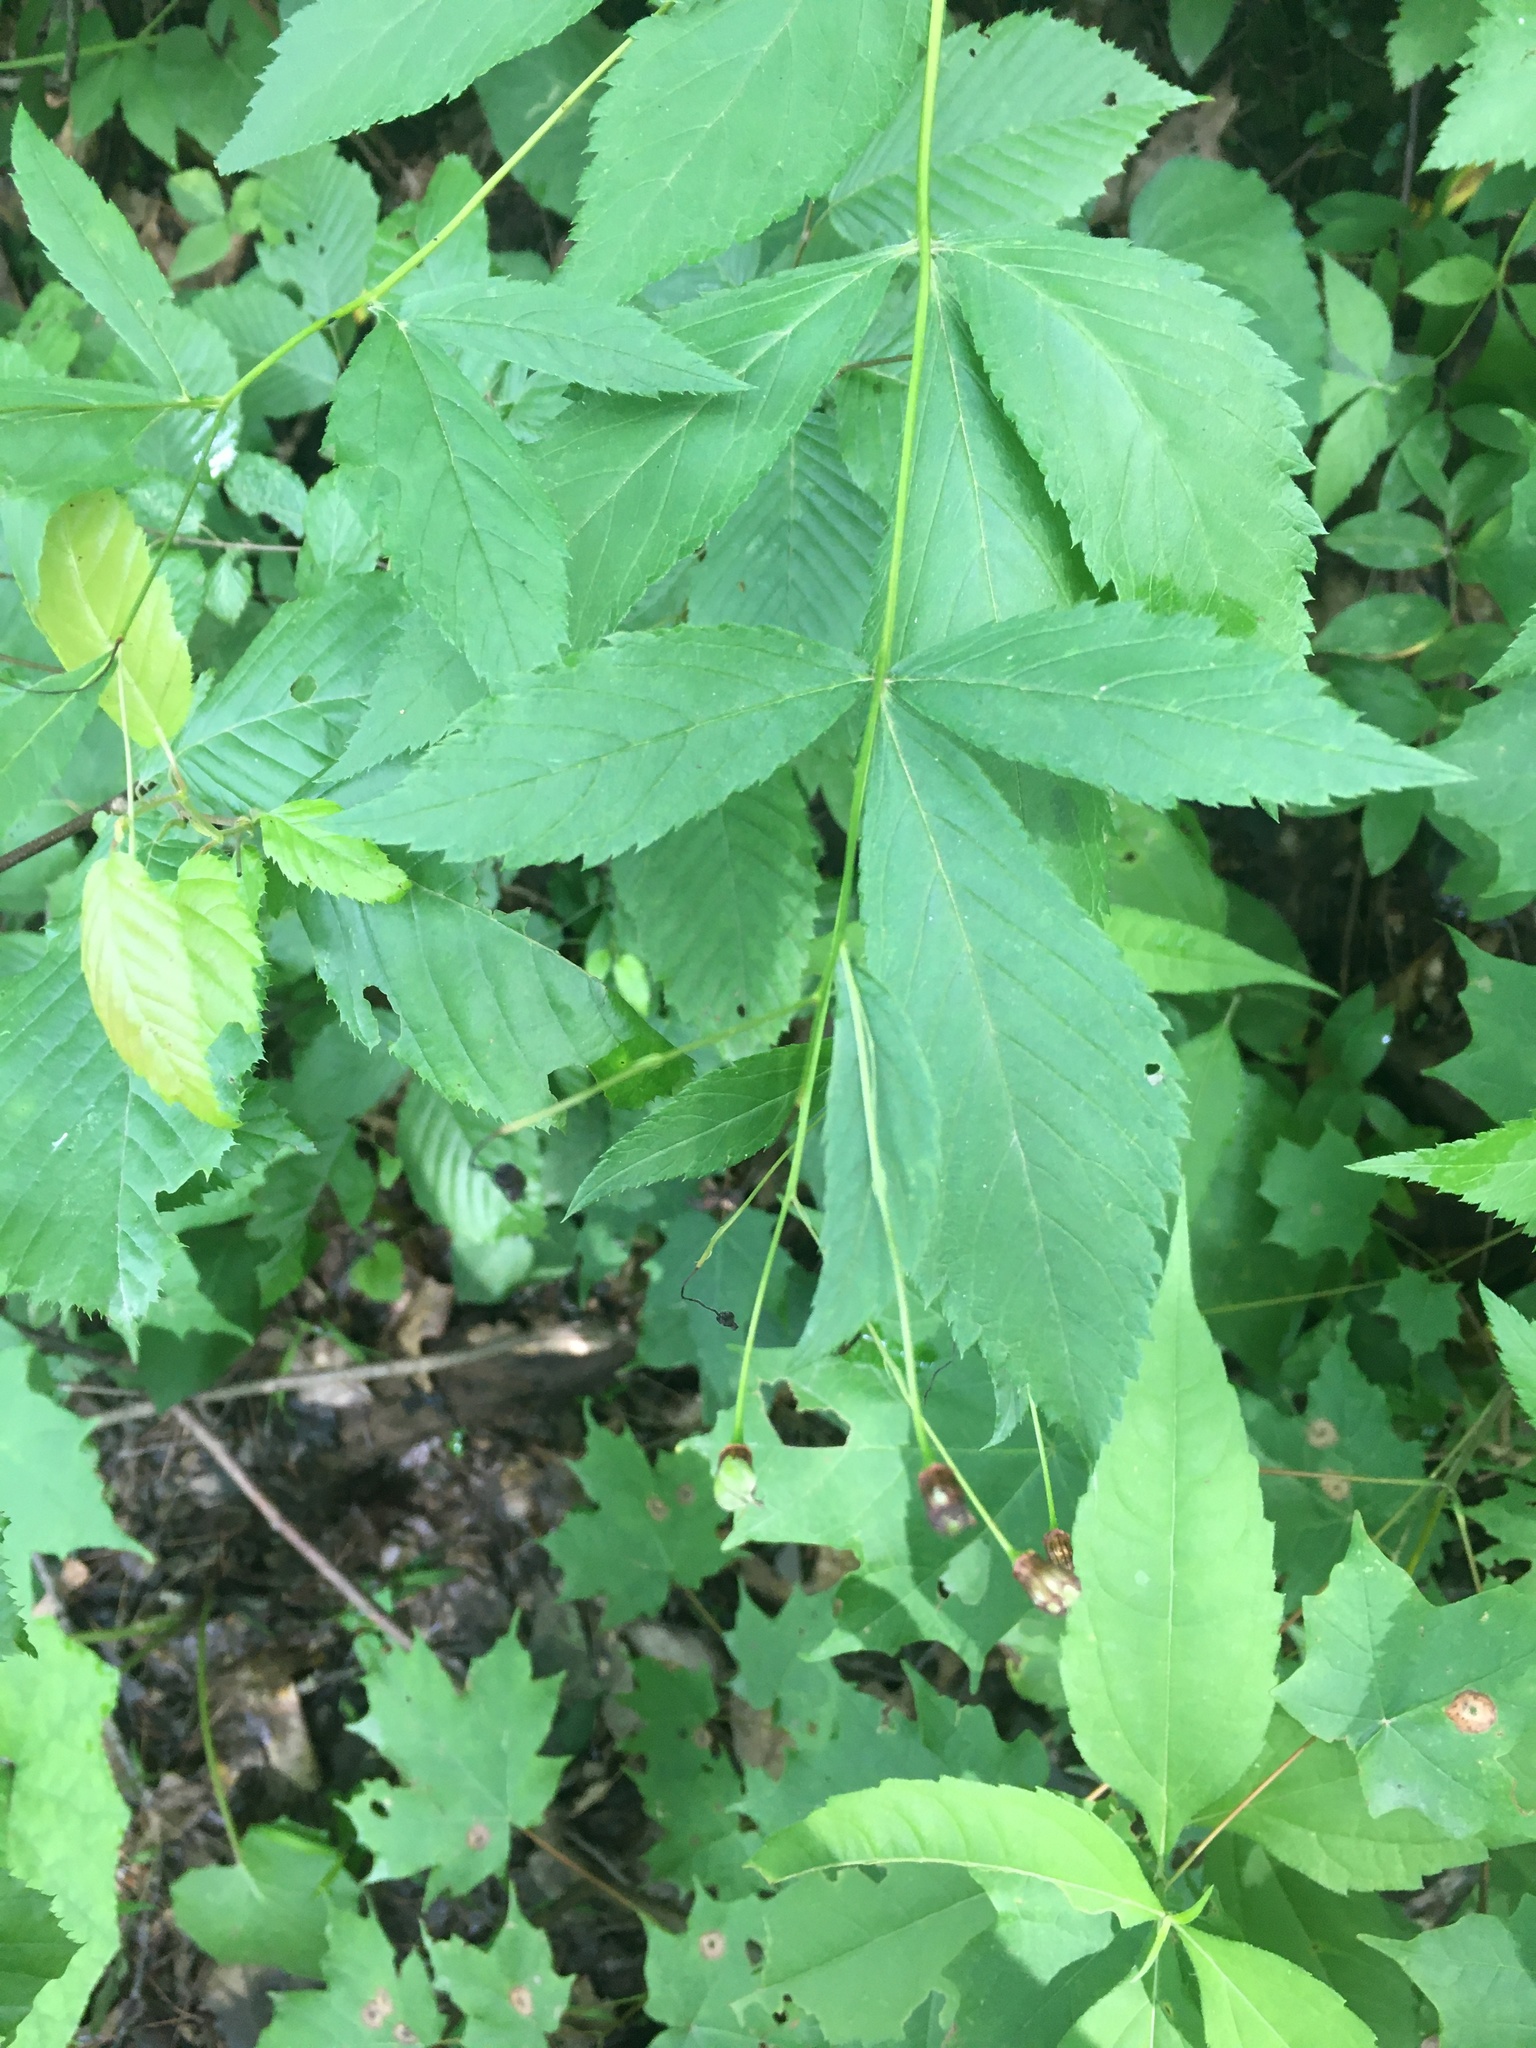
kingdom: Plantae
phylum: Tracheophyta
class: Magnoliopsida
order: Rosales
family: Rosaceae
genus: Gillenia
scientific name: Gillenia trifoliata
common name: Bowman's-root
